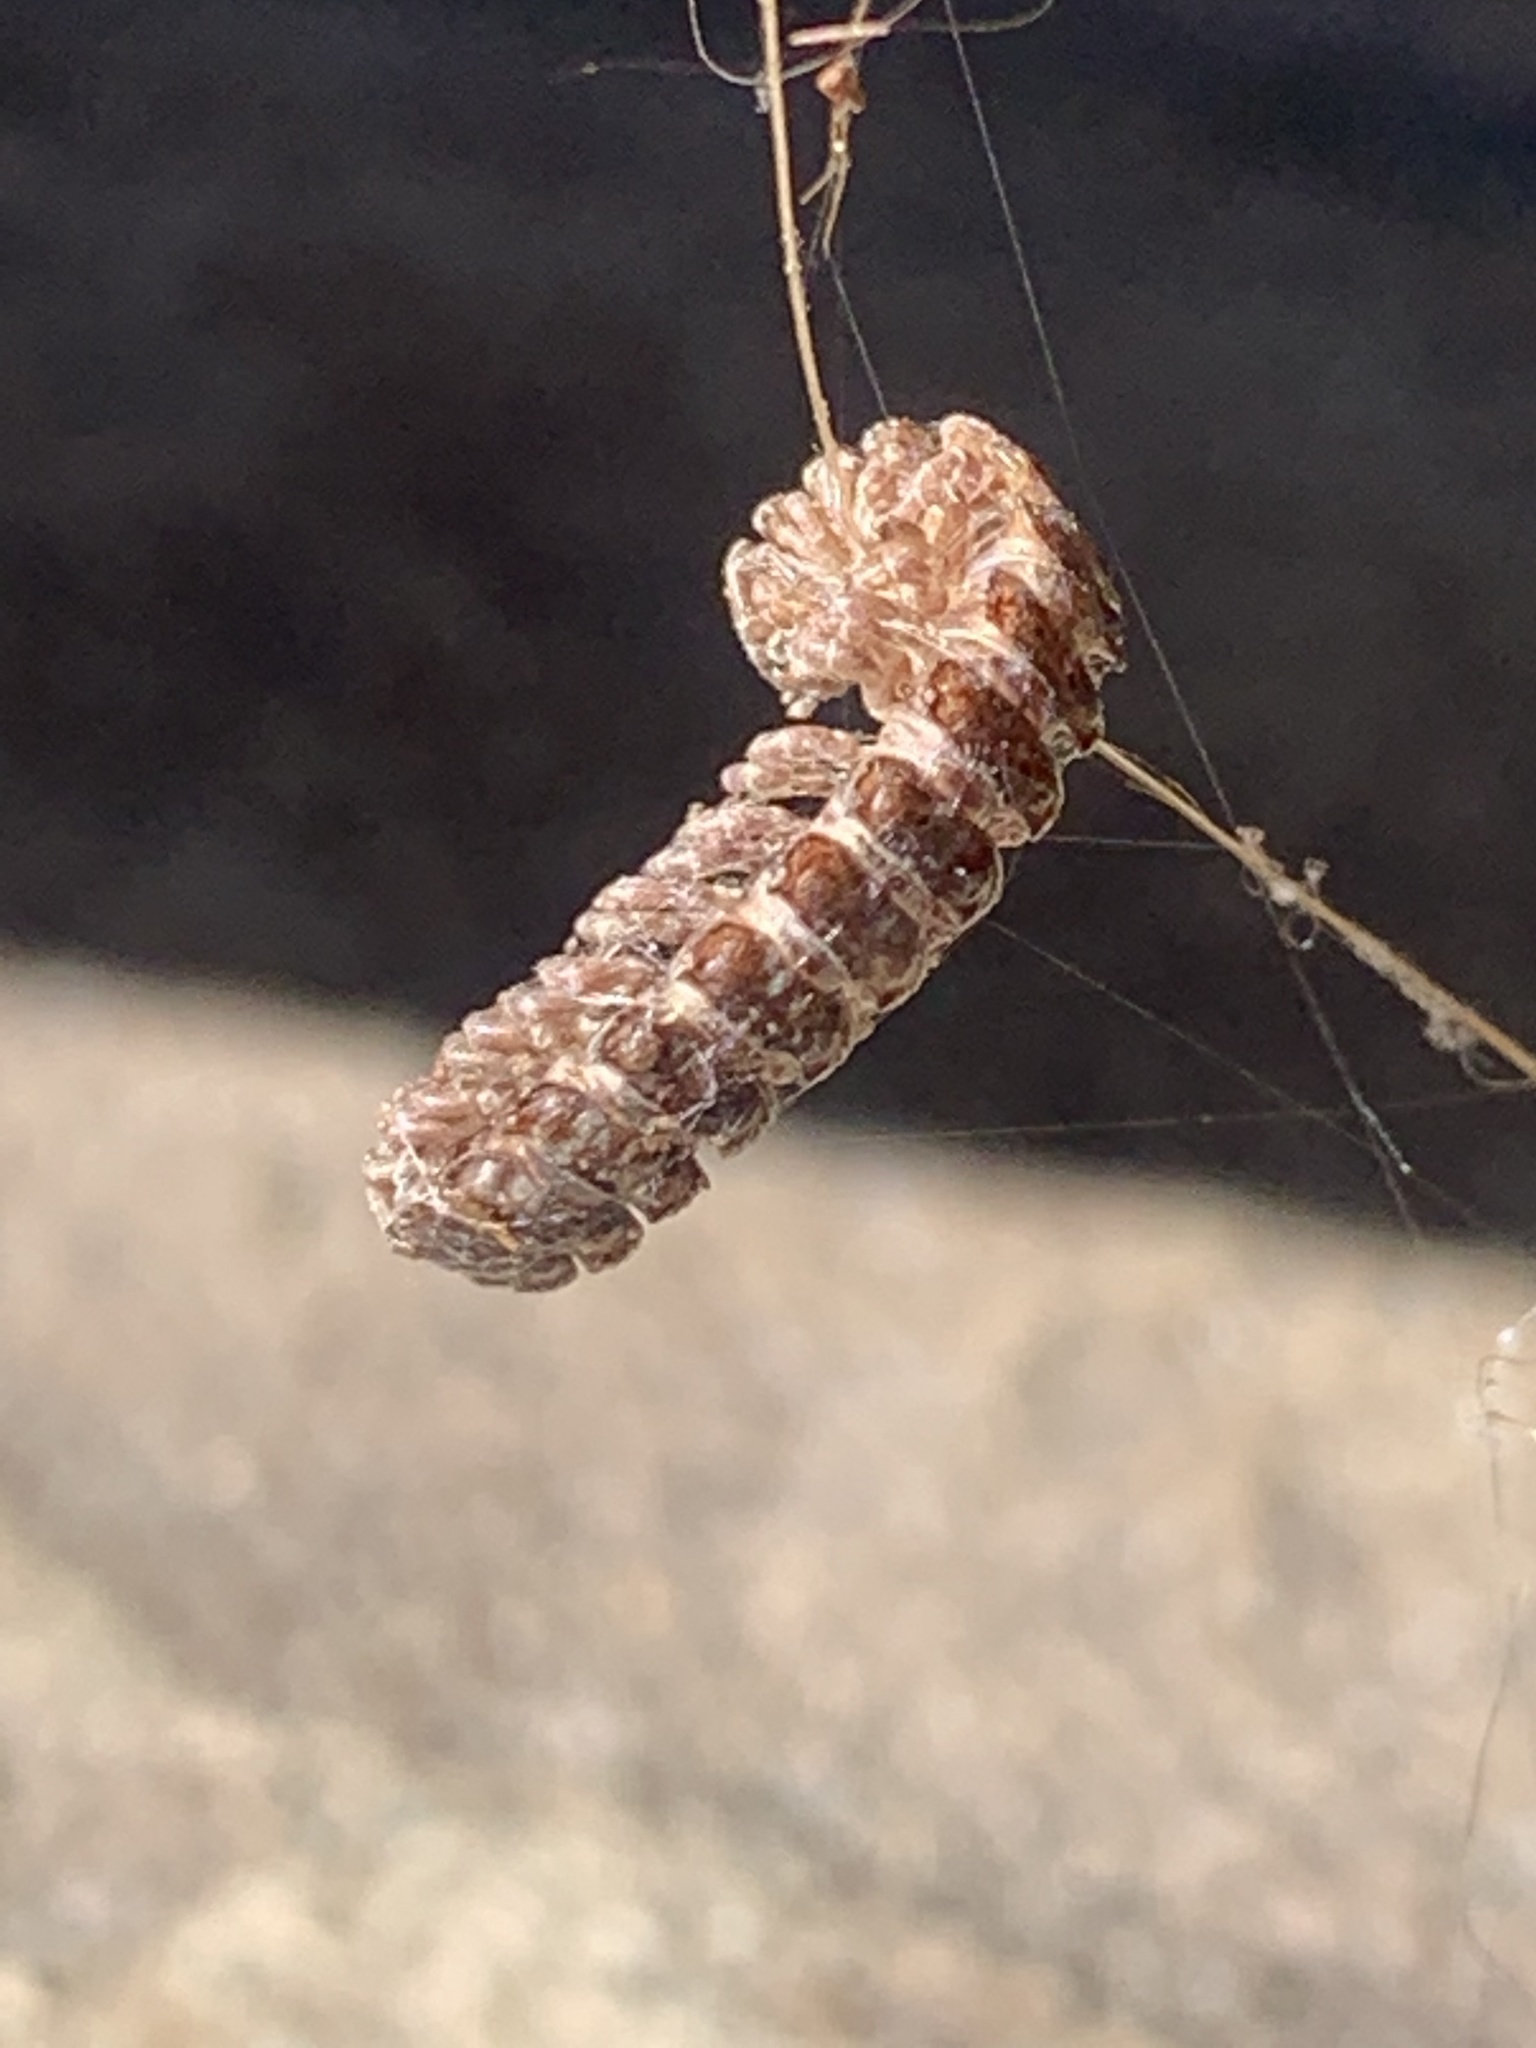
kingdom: Animalia
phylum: Arthropoda
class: Diplopoda
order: Polydesmida
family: Polydesmidae
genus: Polydesmus
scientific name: Polydesmus
